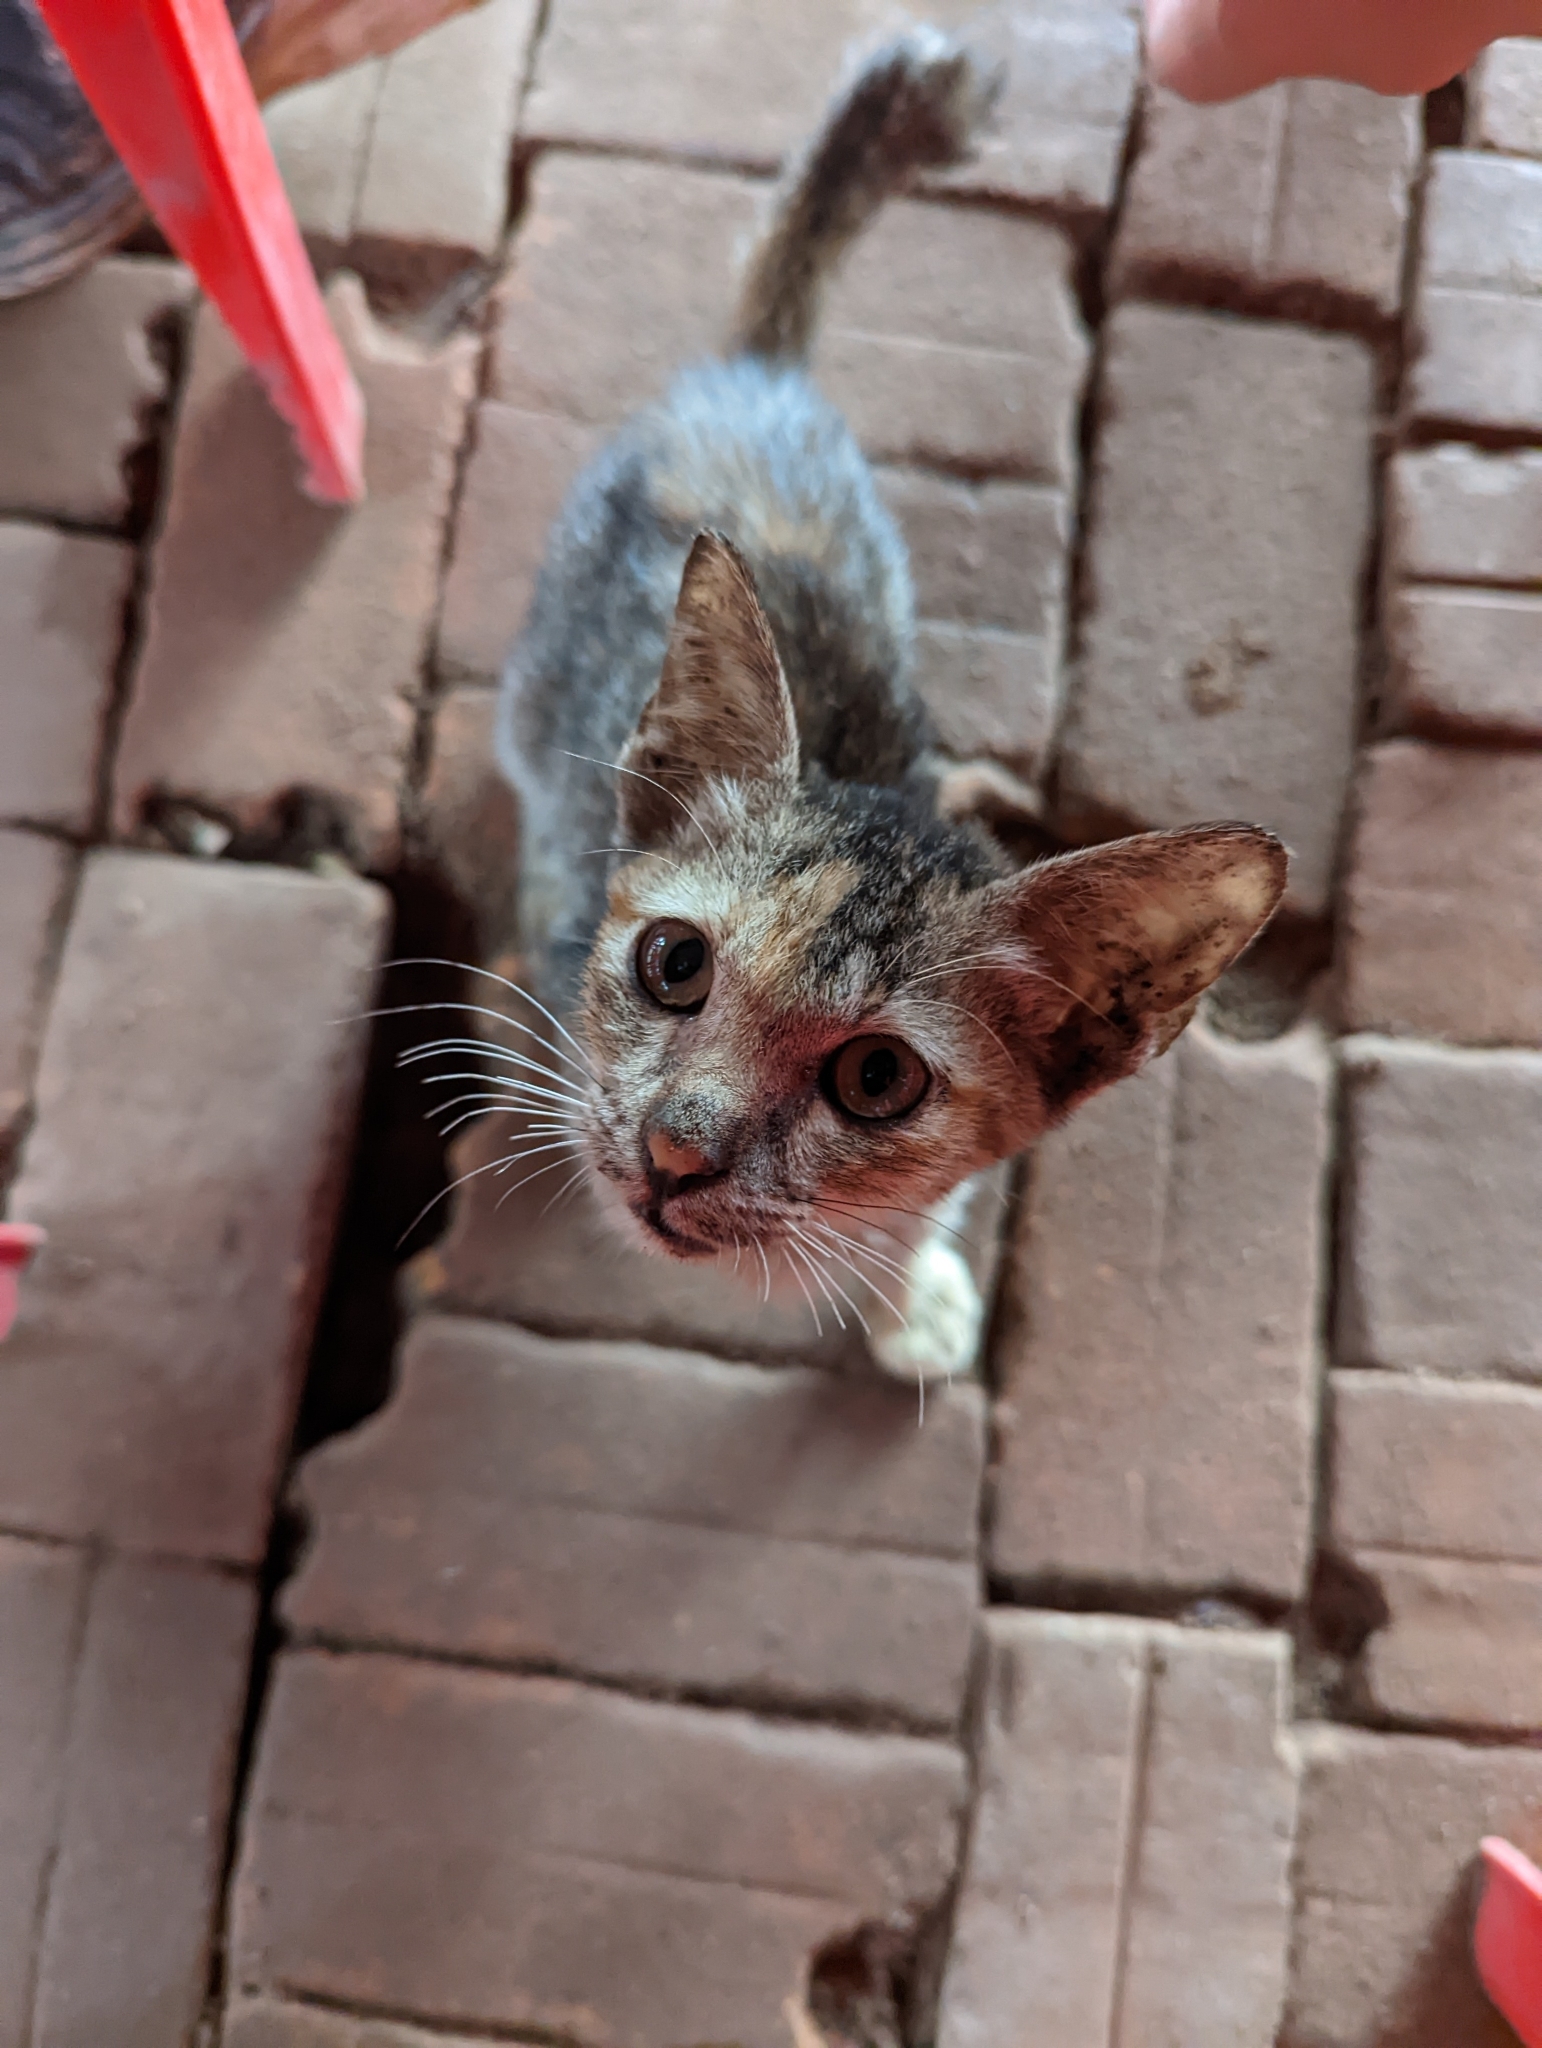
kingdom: Animalia
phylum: Chordata
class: Mammalia
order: Carnivora
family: Felidae
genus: Felis
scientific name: Felis catus
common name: Domestic cat
